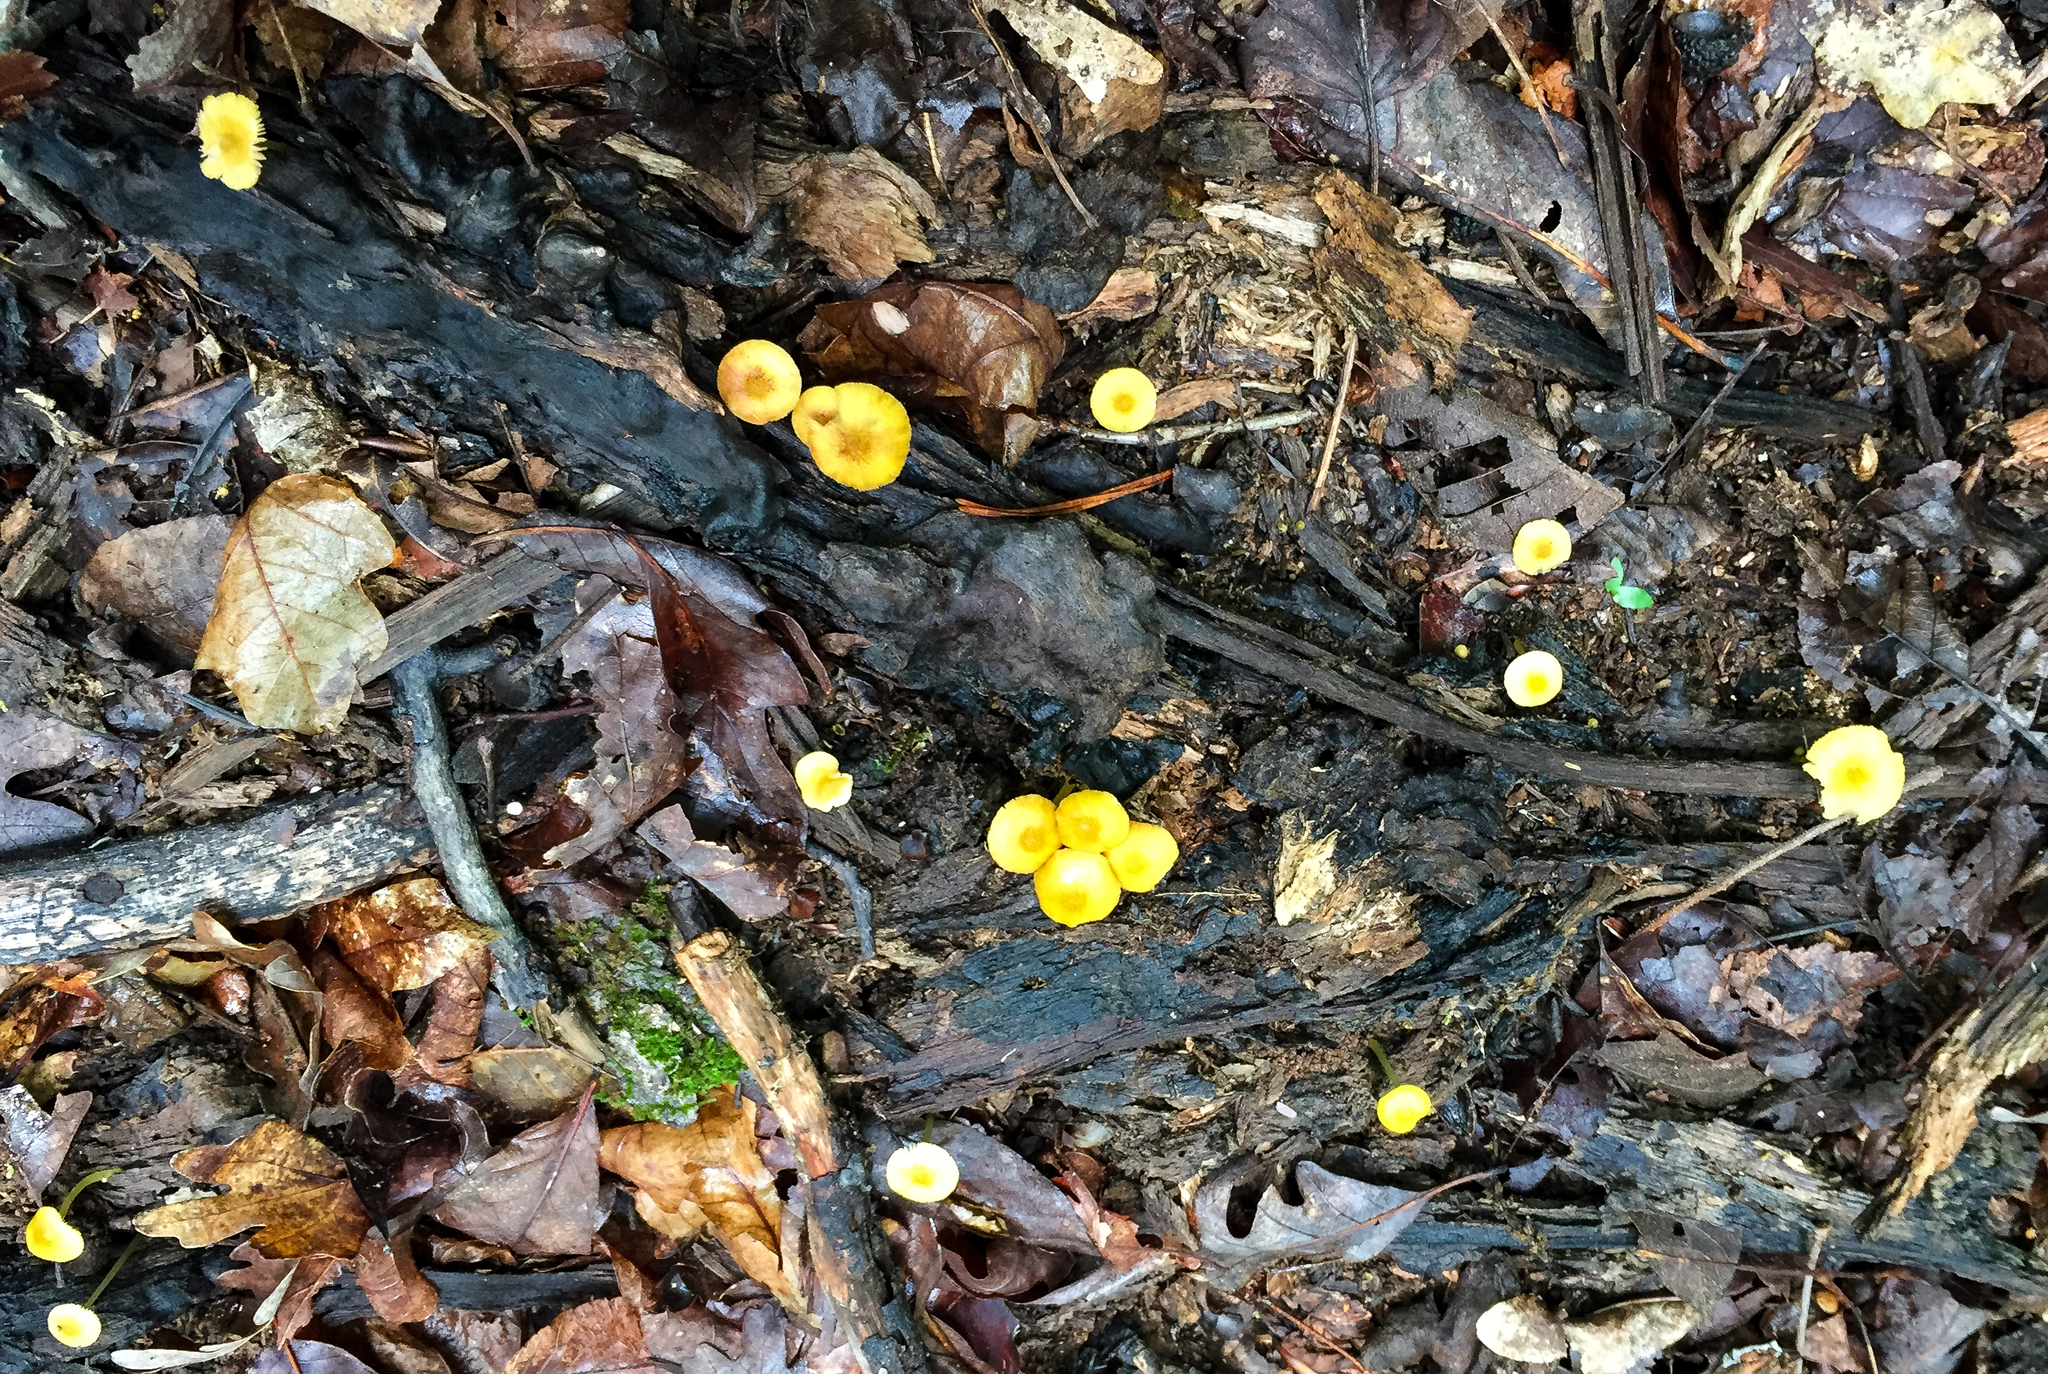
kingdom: Fungi
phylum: Basidiomycota
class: Agaricomycetes
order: Agaricales
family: Pluteaceae
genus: Pluteus
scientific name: Pluteus chrysophlebius
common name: Yellow deer mushroom
